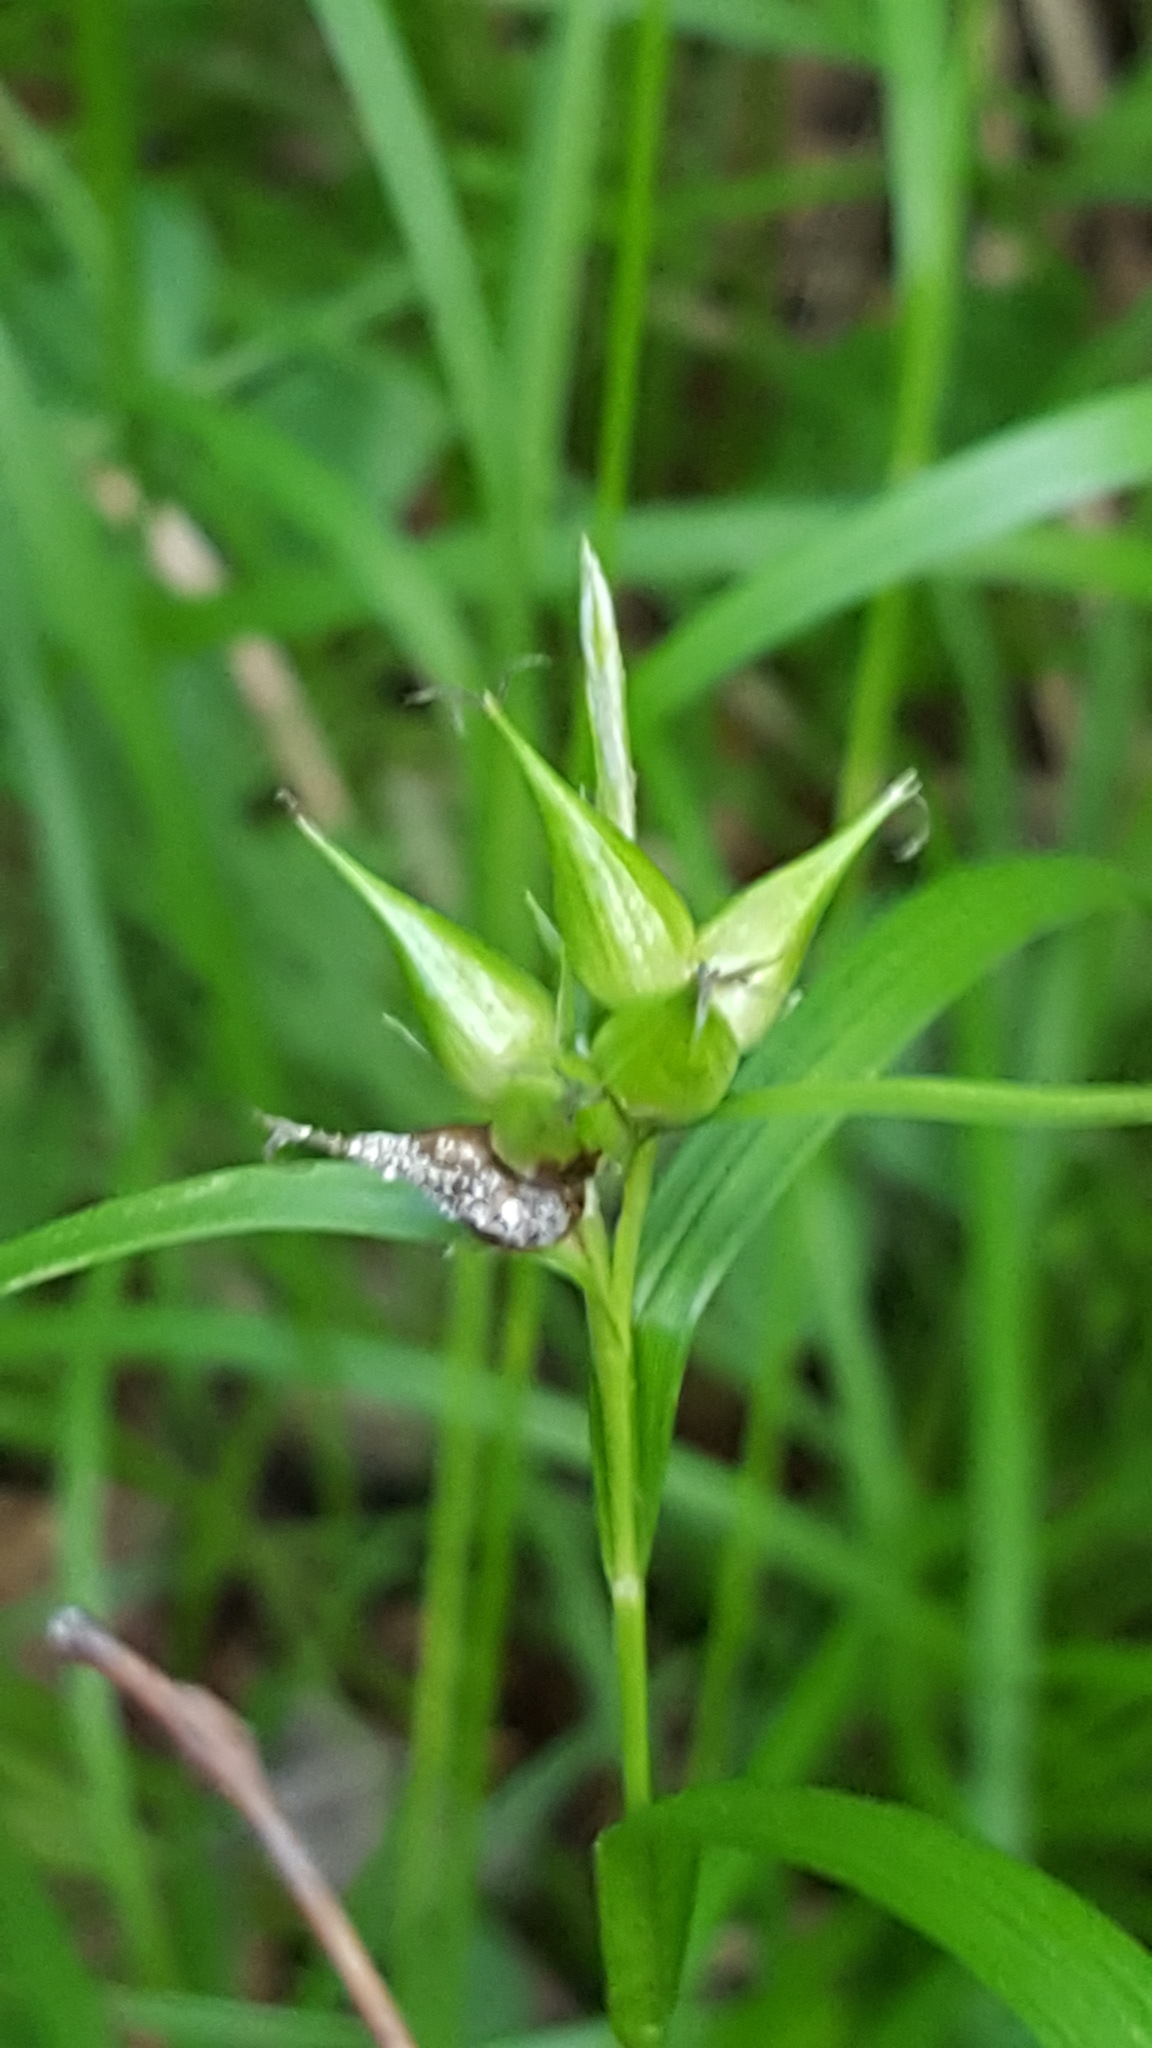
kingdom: Plantae
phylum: Tracheophyta
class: Liliopsida
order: Poales
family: Cyperaceae
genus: Carex
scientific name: Carex intumescens
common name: Greater bladder sedge
